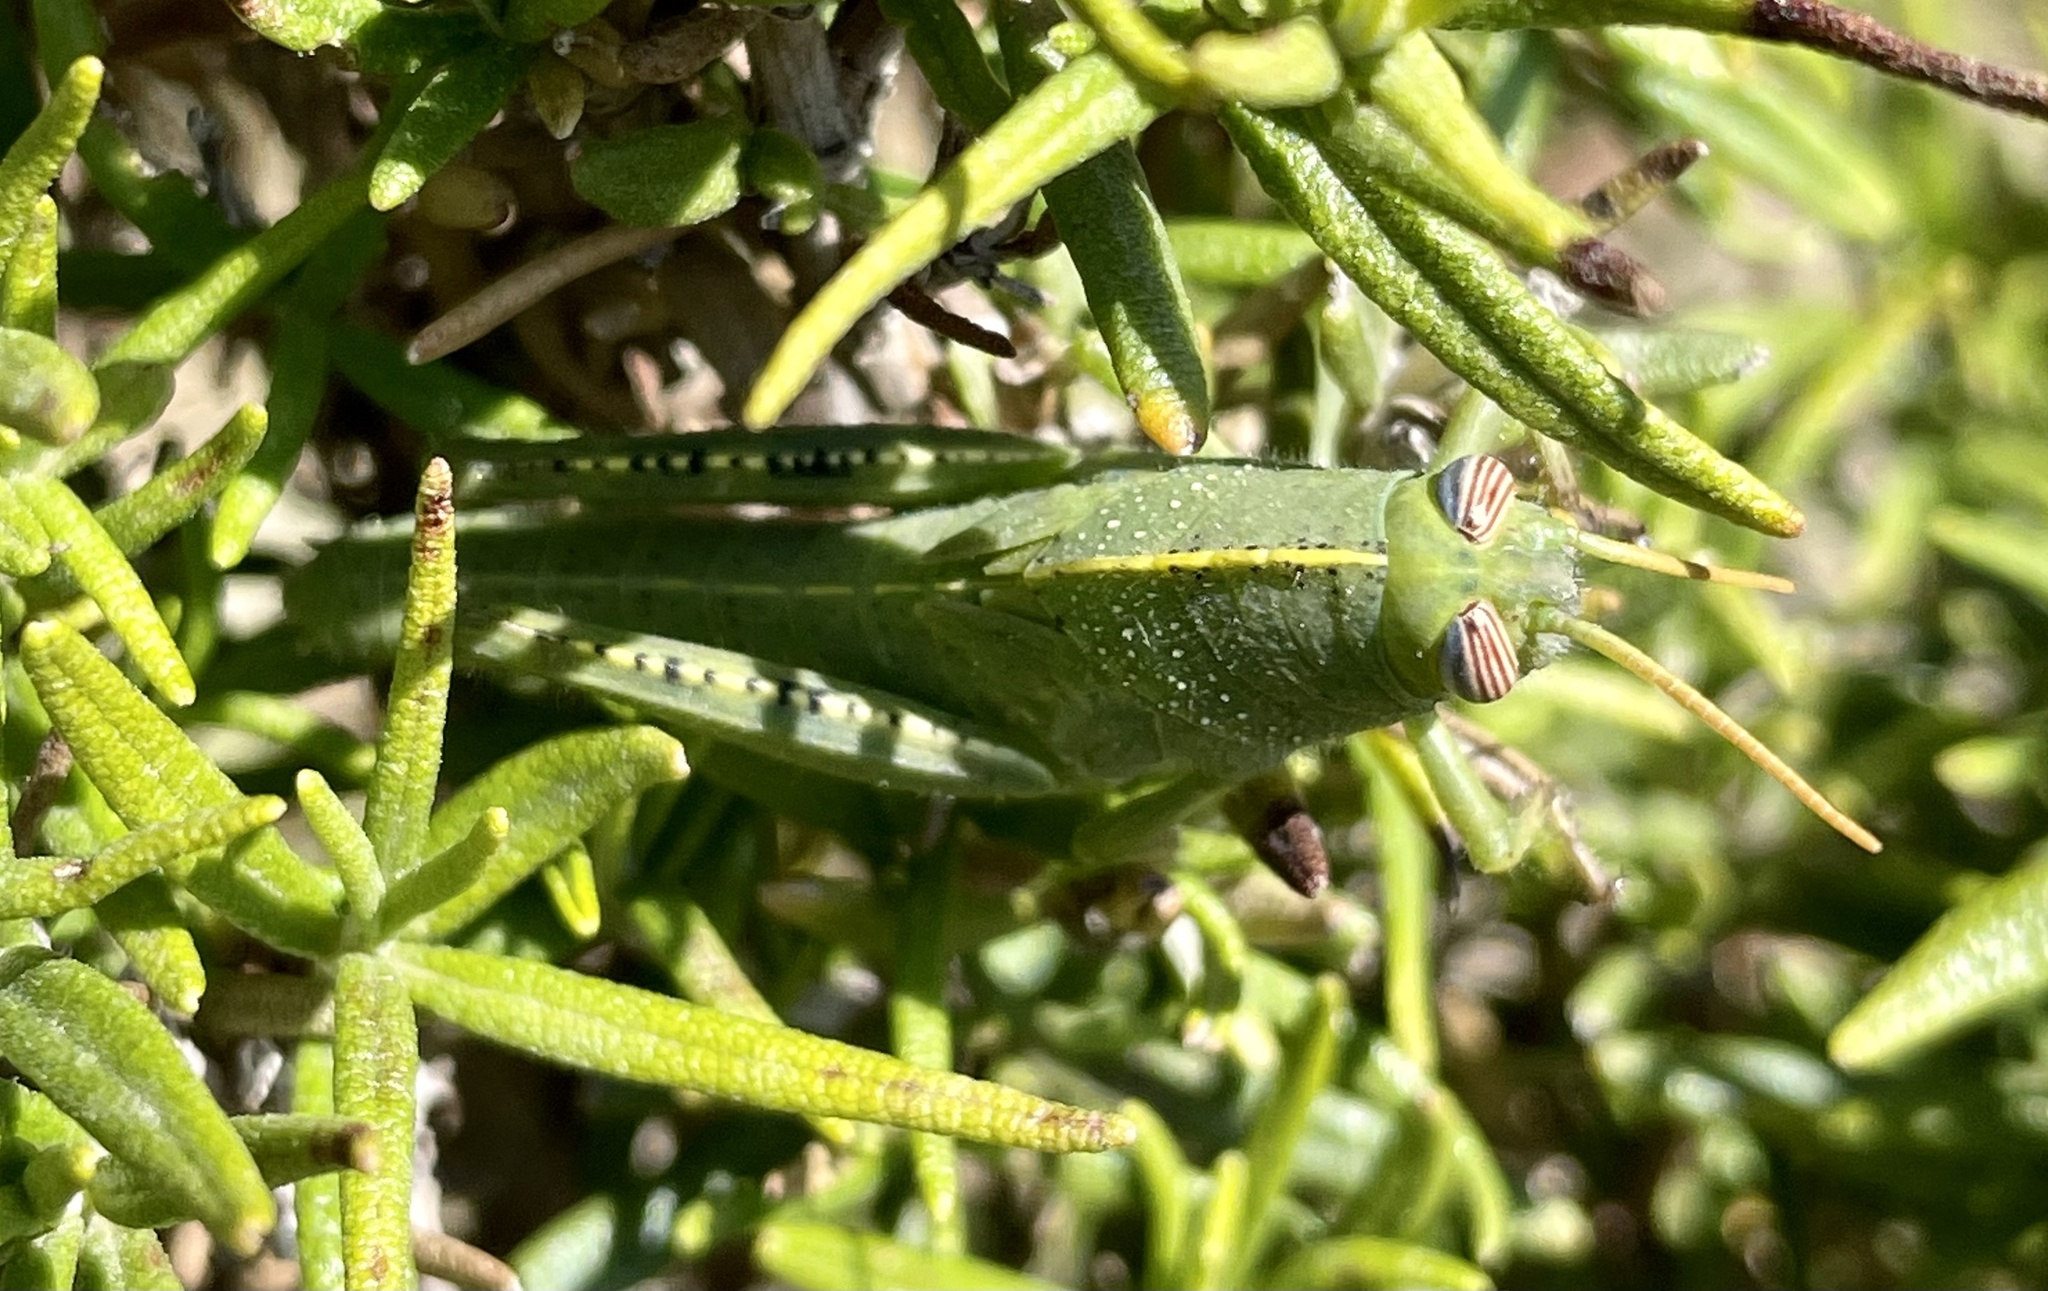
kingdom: Animalia
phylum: Arthropoda
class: Insecta
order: Orthoptera
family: Acrididae
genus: Anacridium
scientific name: Anacridium aegyptium
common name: Egyptian grasshopper
